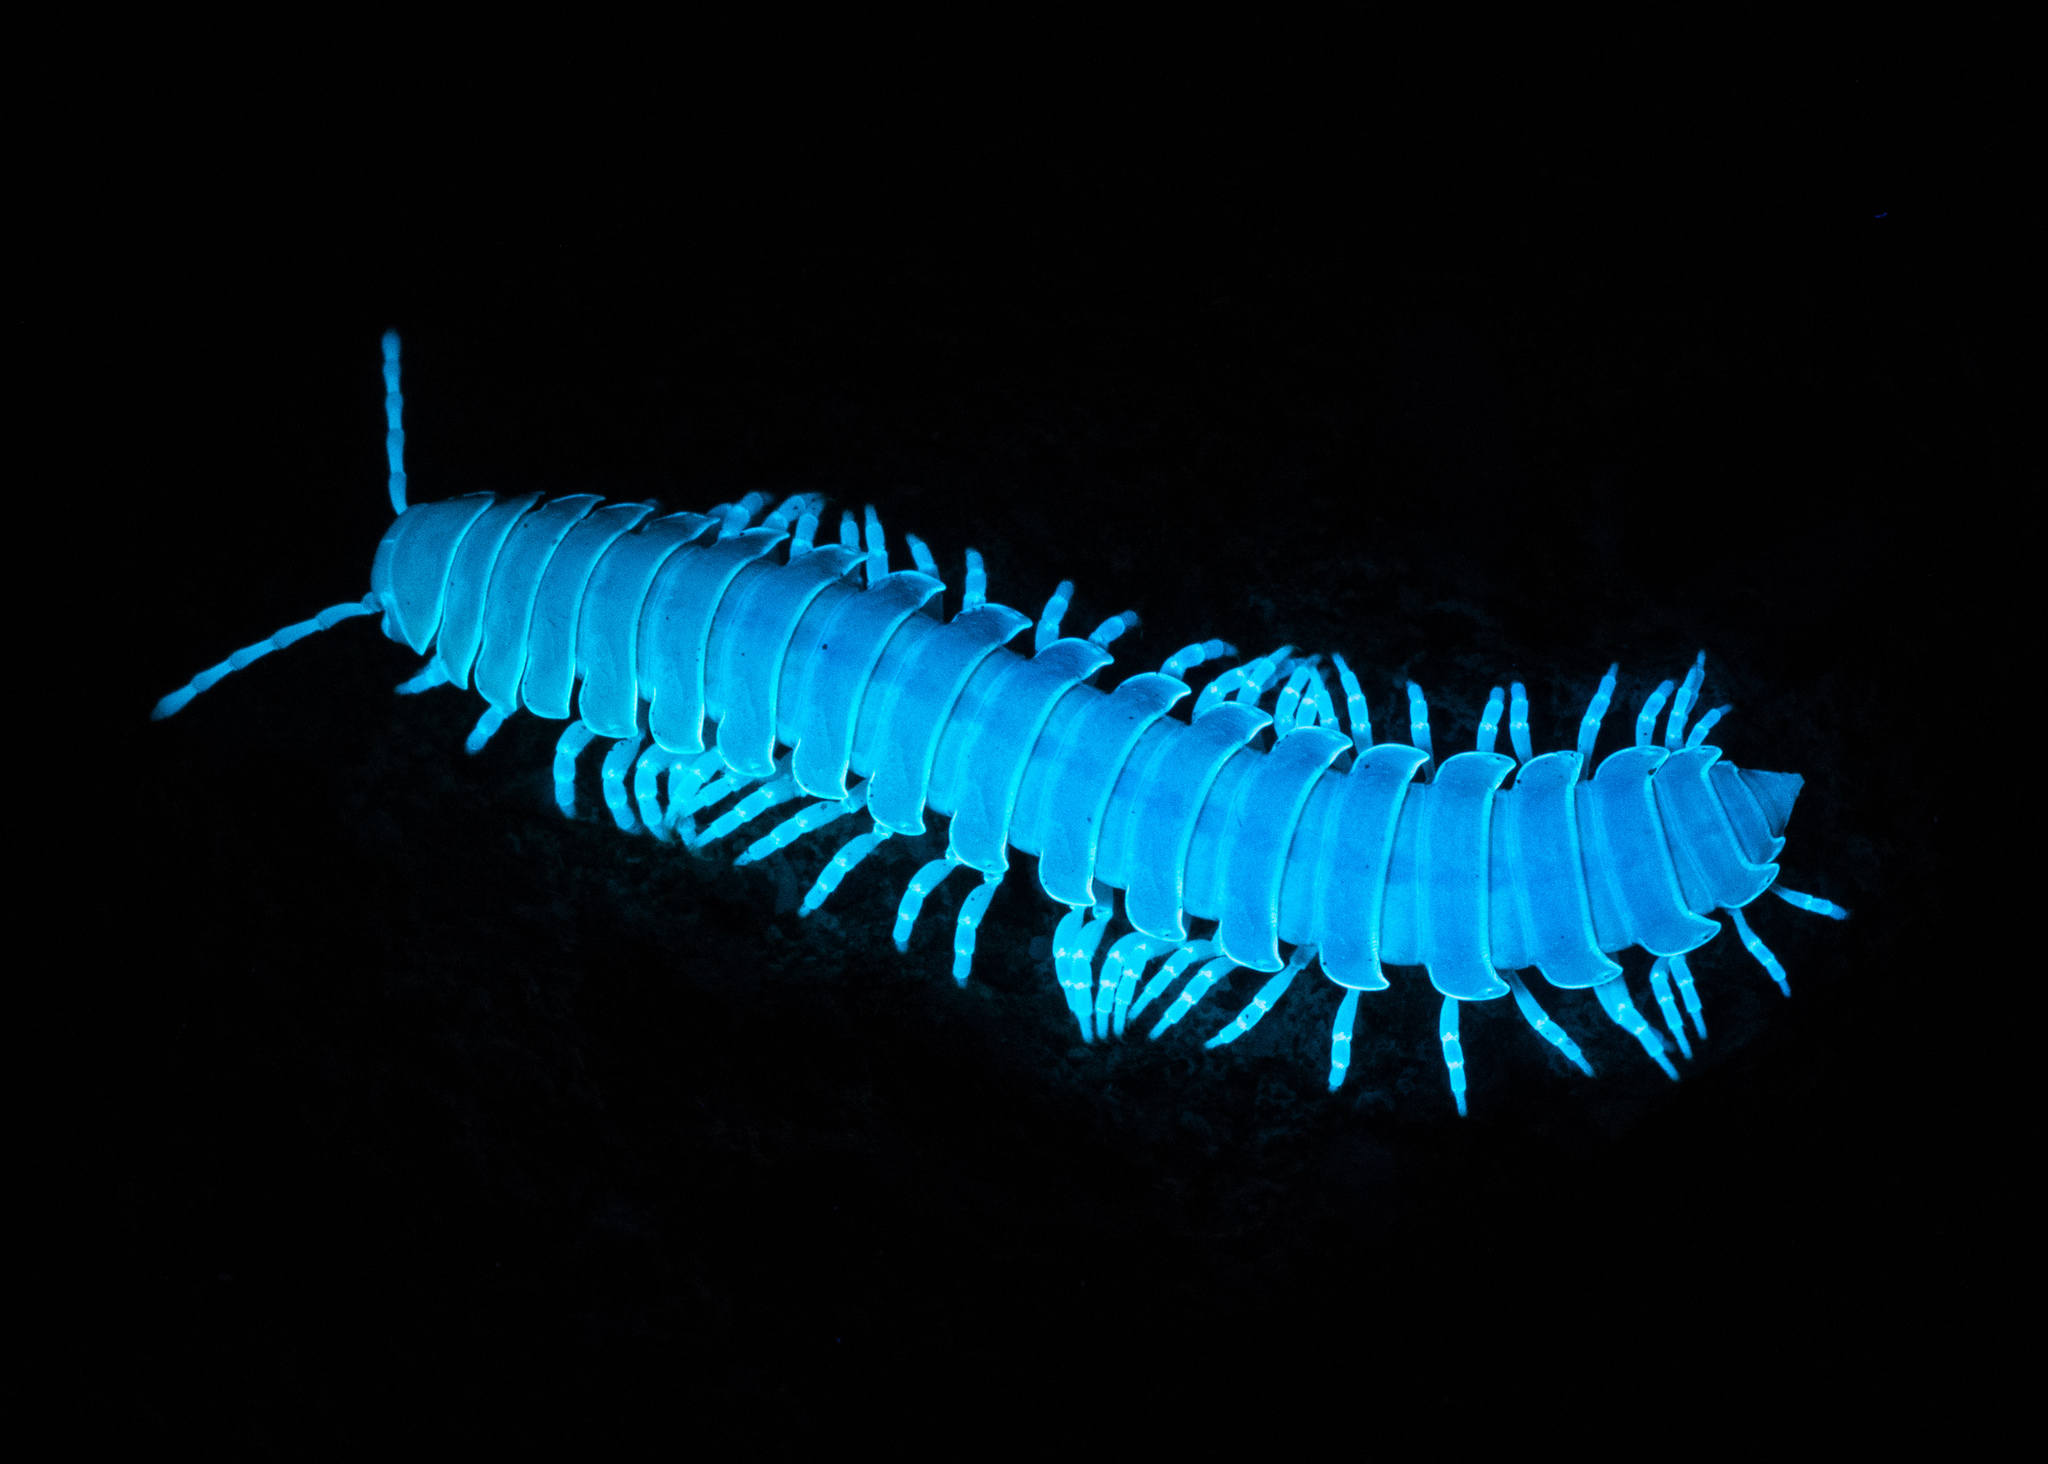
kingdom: Animalia
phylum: Arthropoda
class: Diplopoda
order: Polydesmida
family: Xystodesmidae
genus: Xystocheir
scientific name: Xystocheir dissecta
